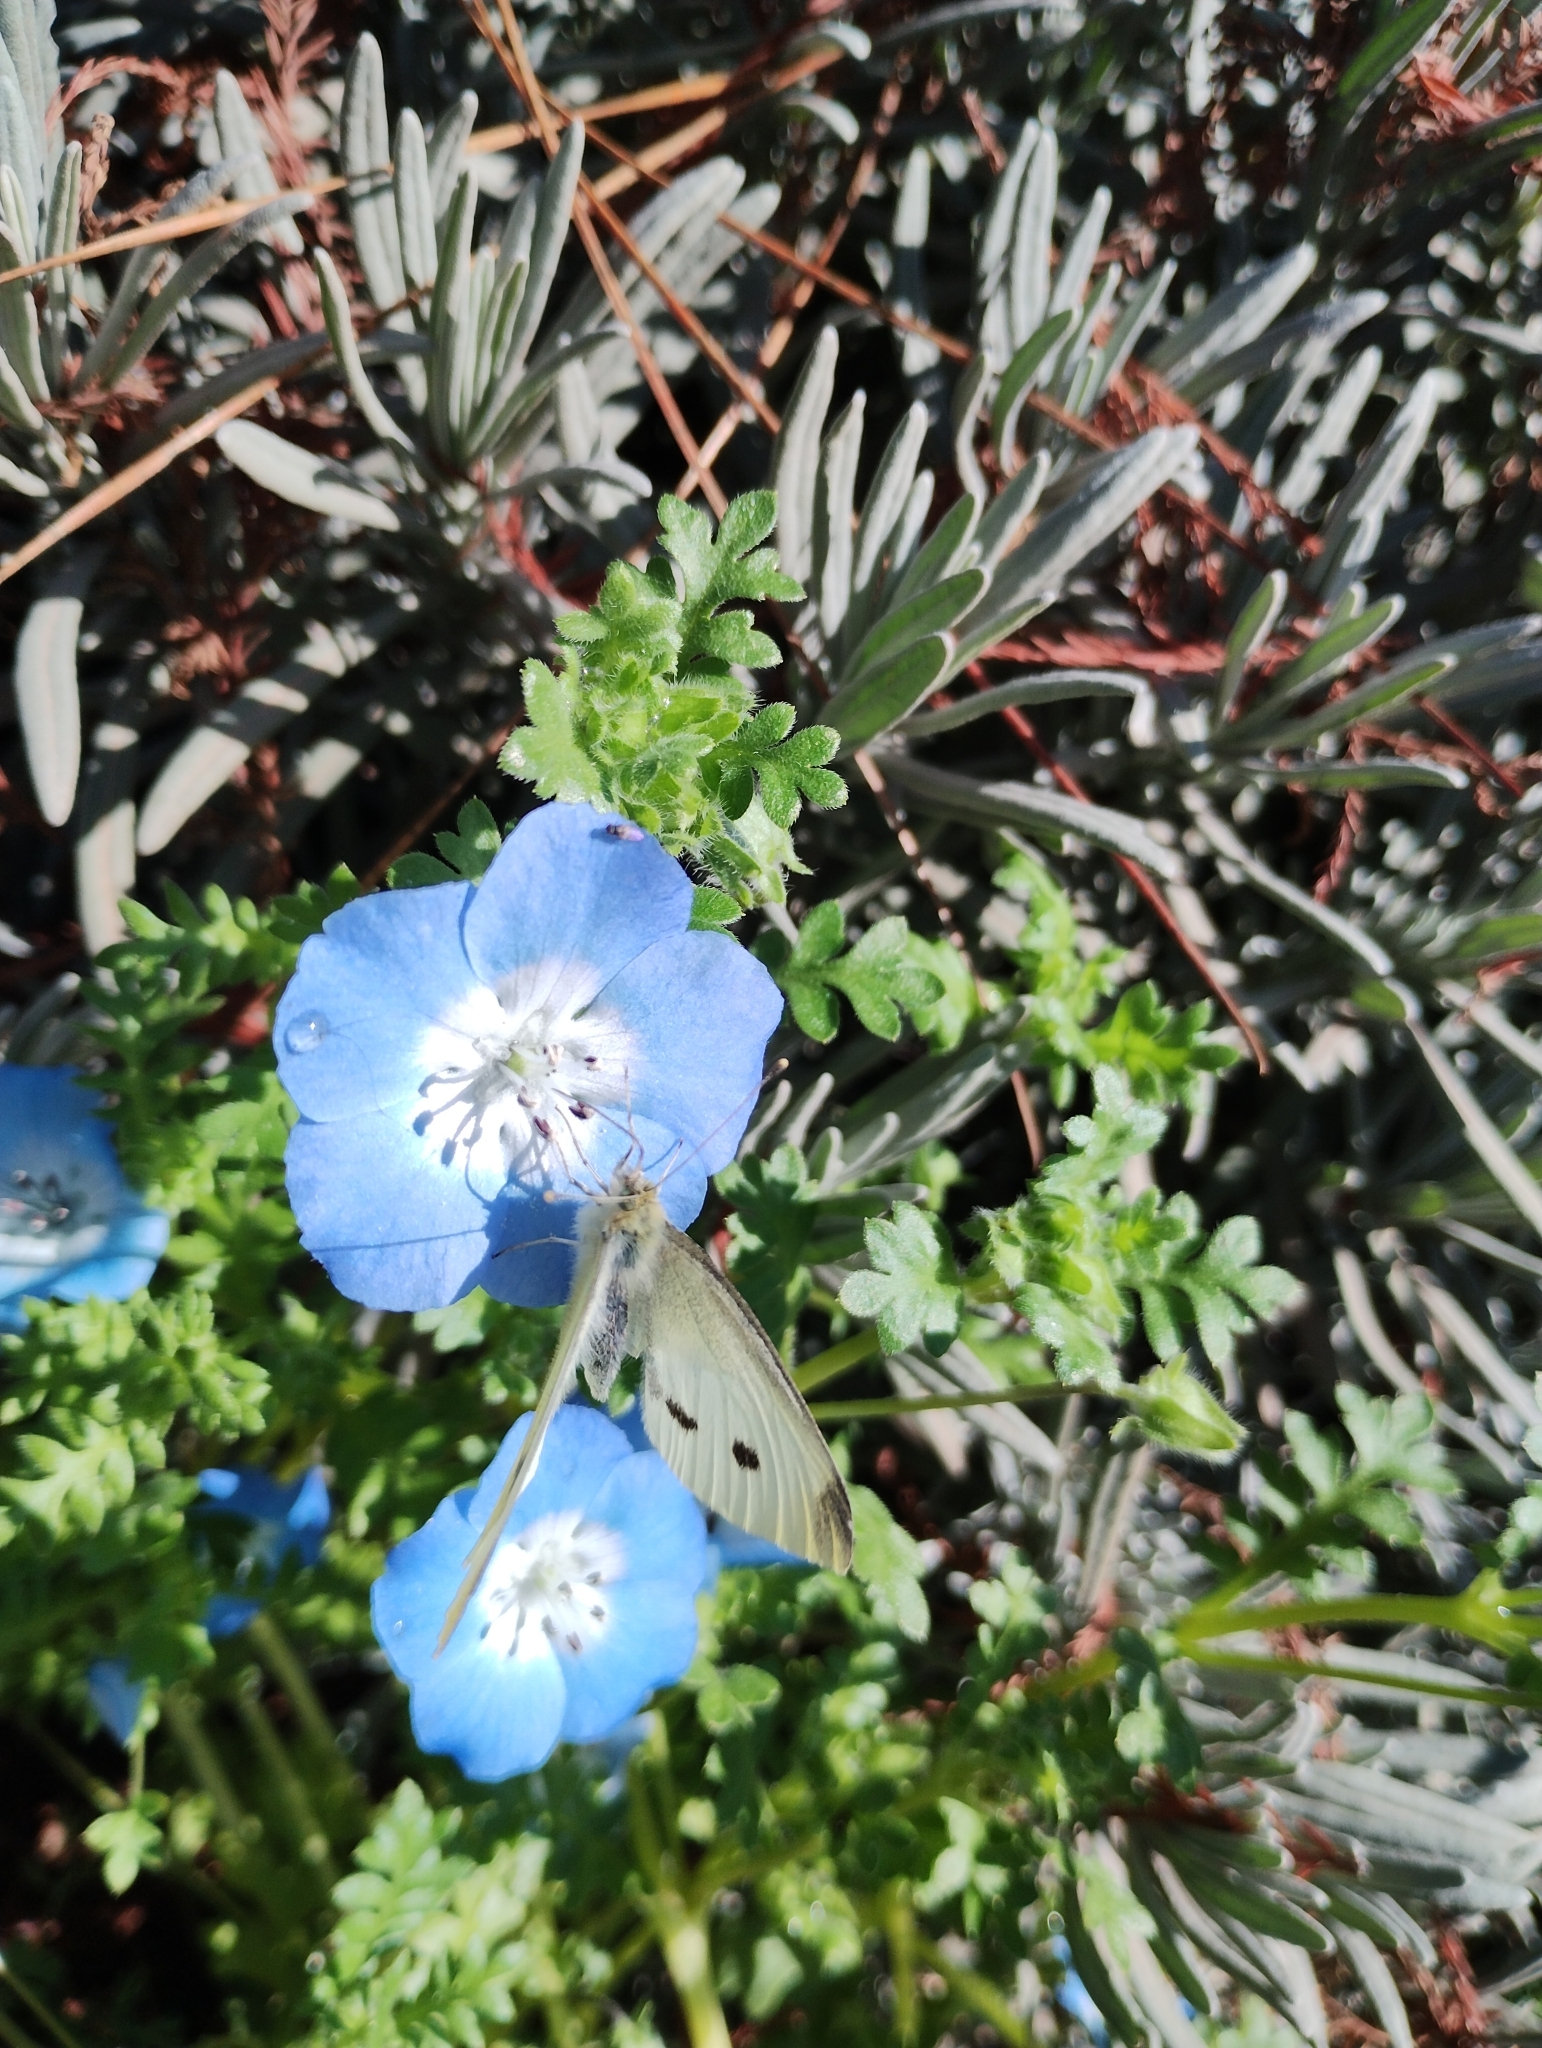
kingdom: Animalia
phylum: Arthropoda
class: Insecta
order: Lepidoptera
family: Pieridae
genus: Pieris
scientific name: Pieris rapae
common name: Small white
